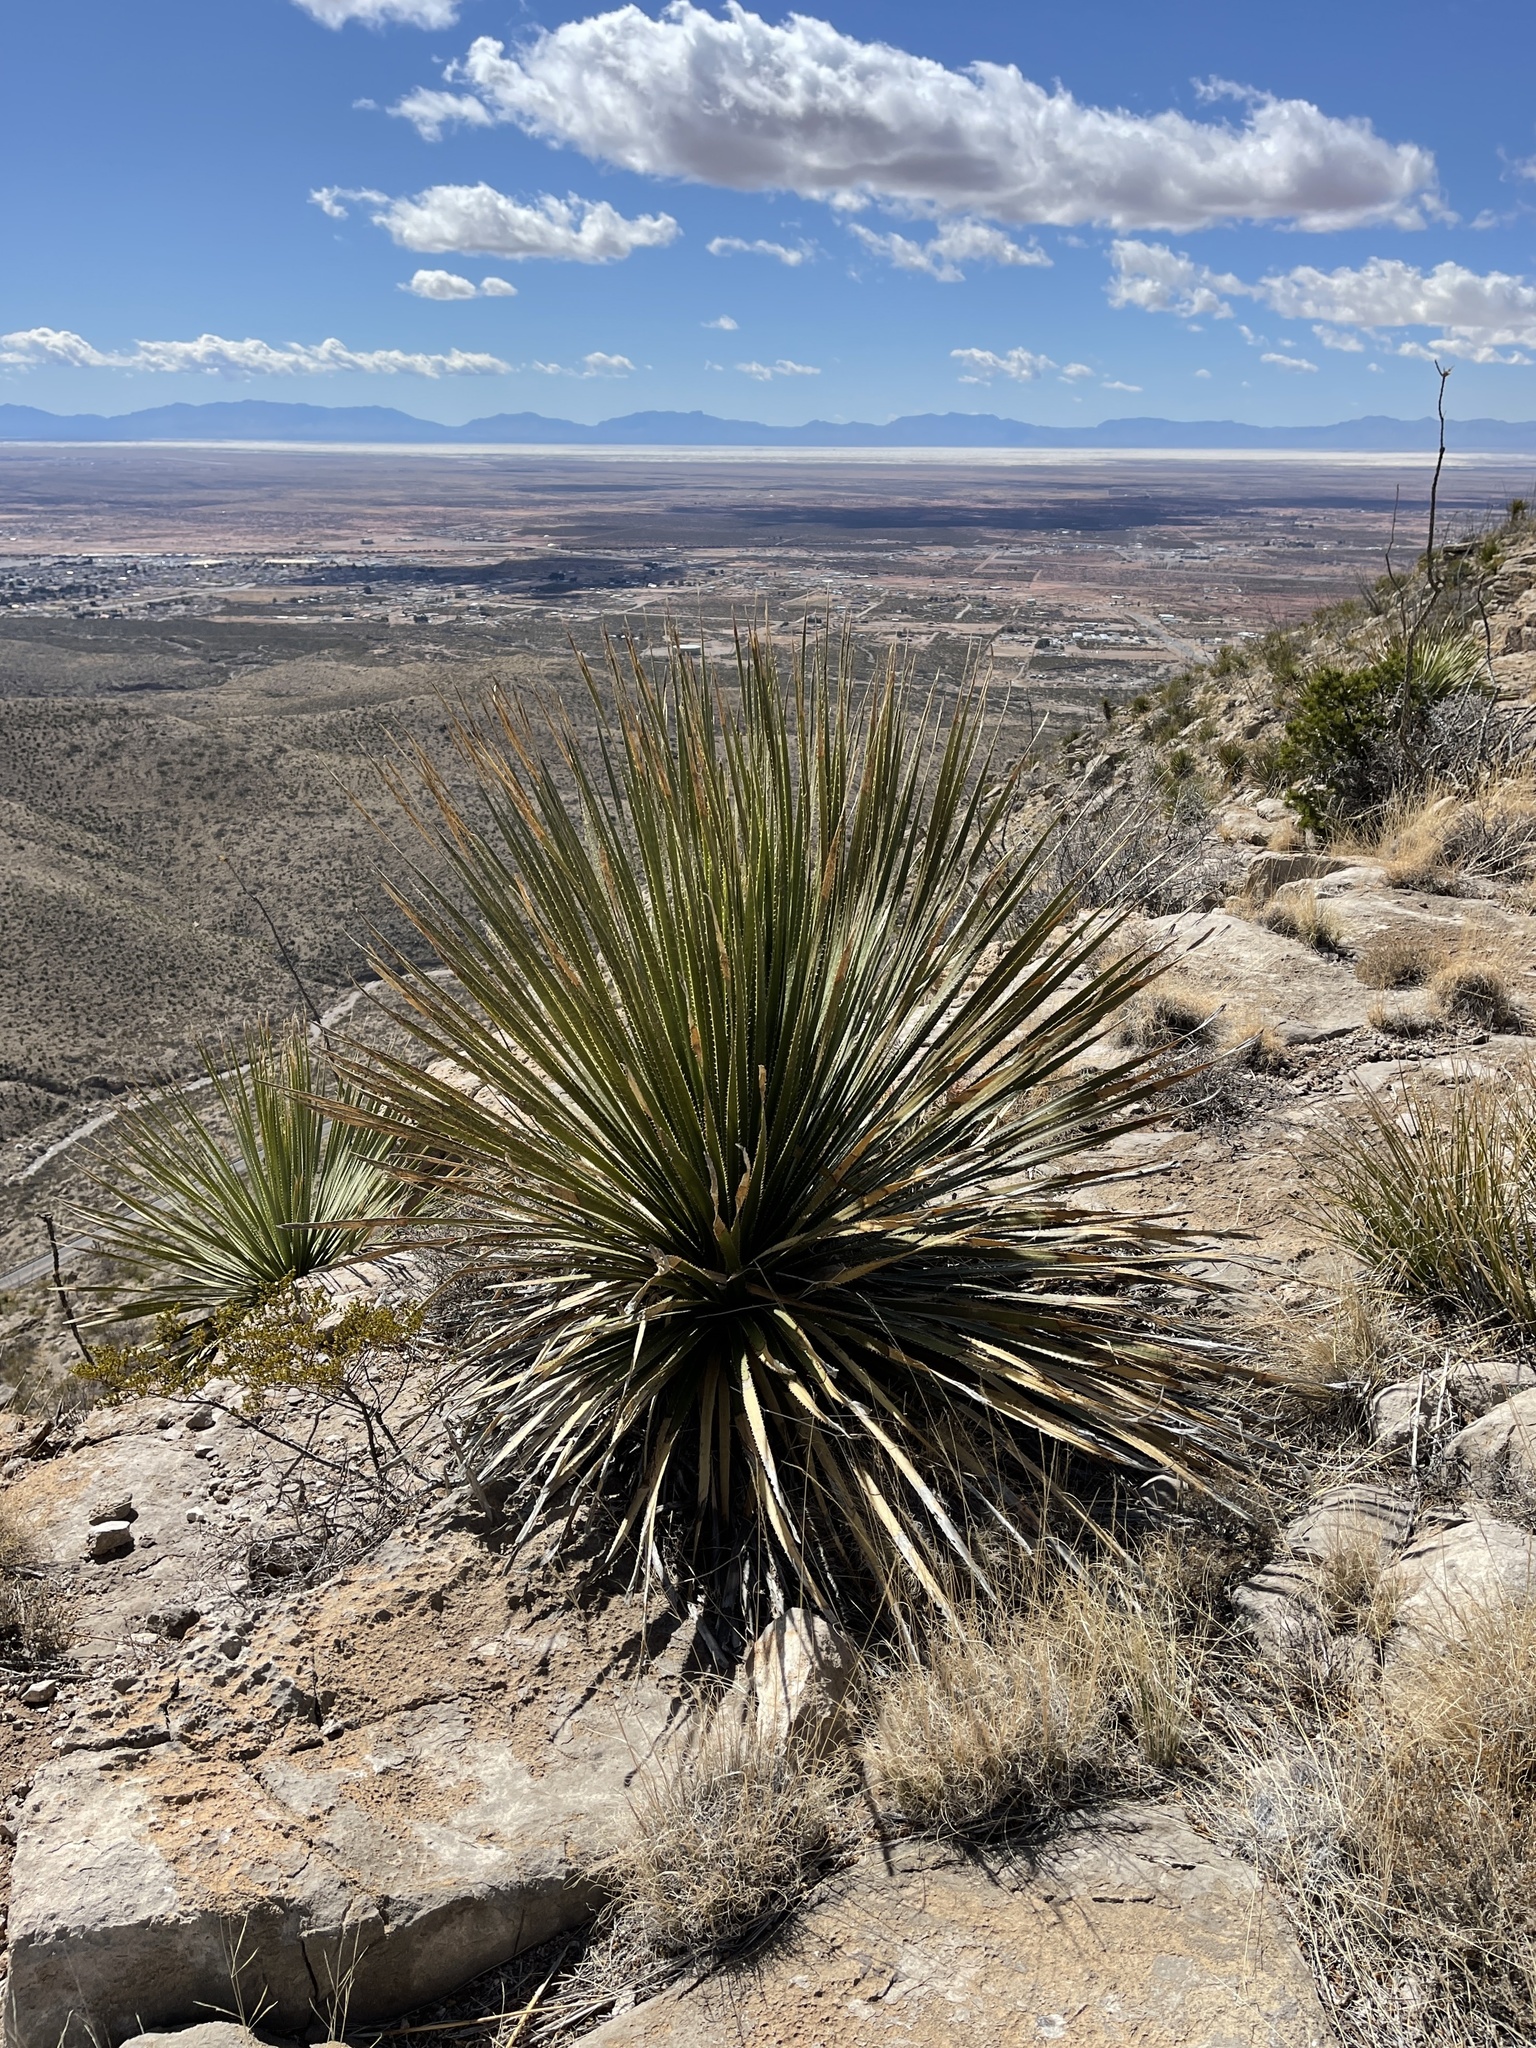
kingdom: Plantae
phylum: Tracheophyta
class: Liliopsida
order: Asparagales
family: Asparagaceae
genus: Dasylirion
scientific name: Dasylirion wheeleri
